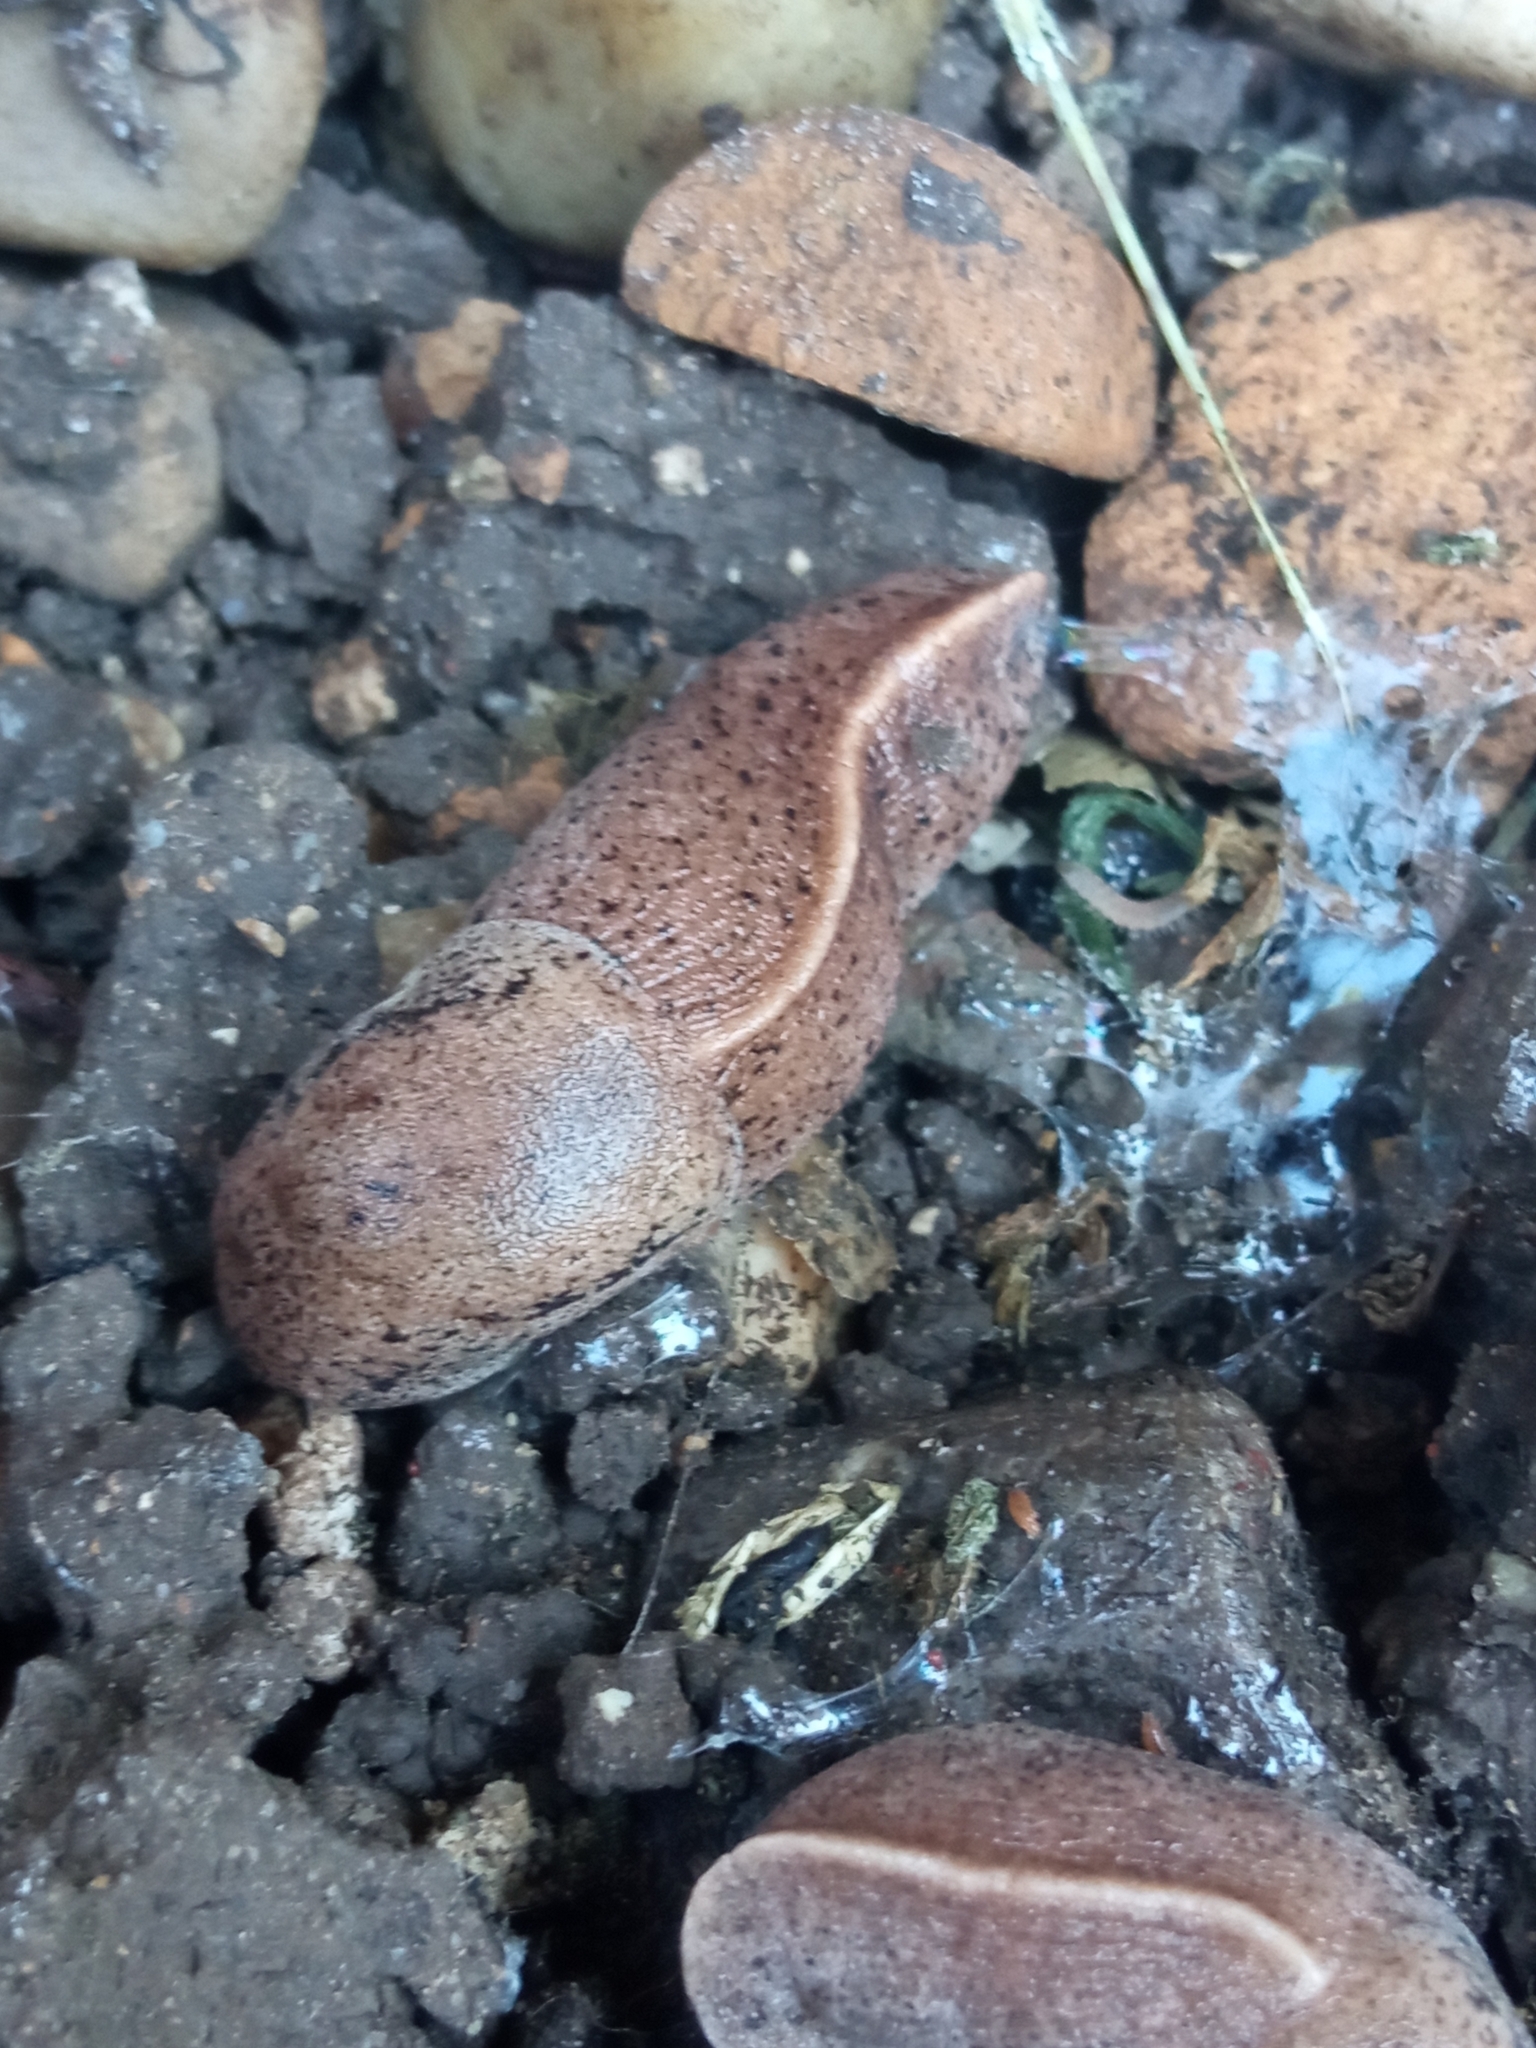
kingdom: Animalia
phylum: Mollusca
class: Gastropoda
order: Stylommatophora
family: Milacidae
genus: Tandonia
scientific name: Tandonia rustica
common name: Bulb-eating slug
